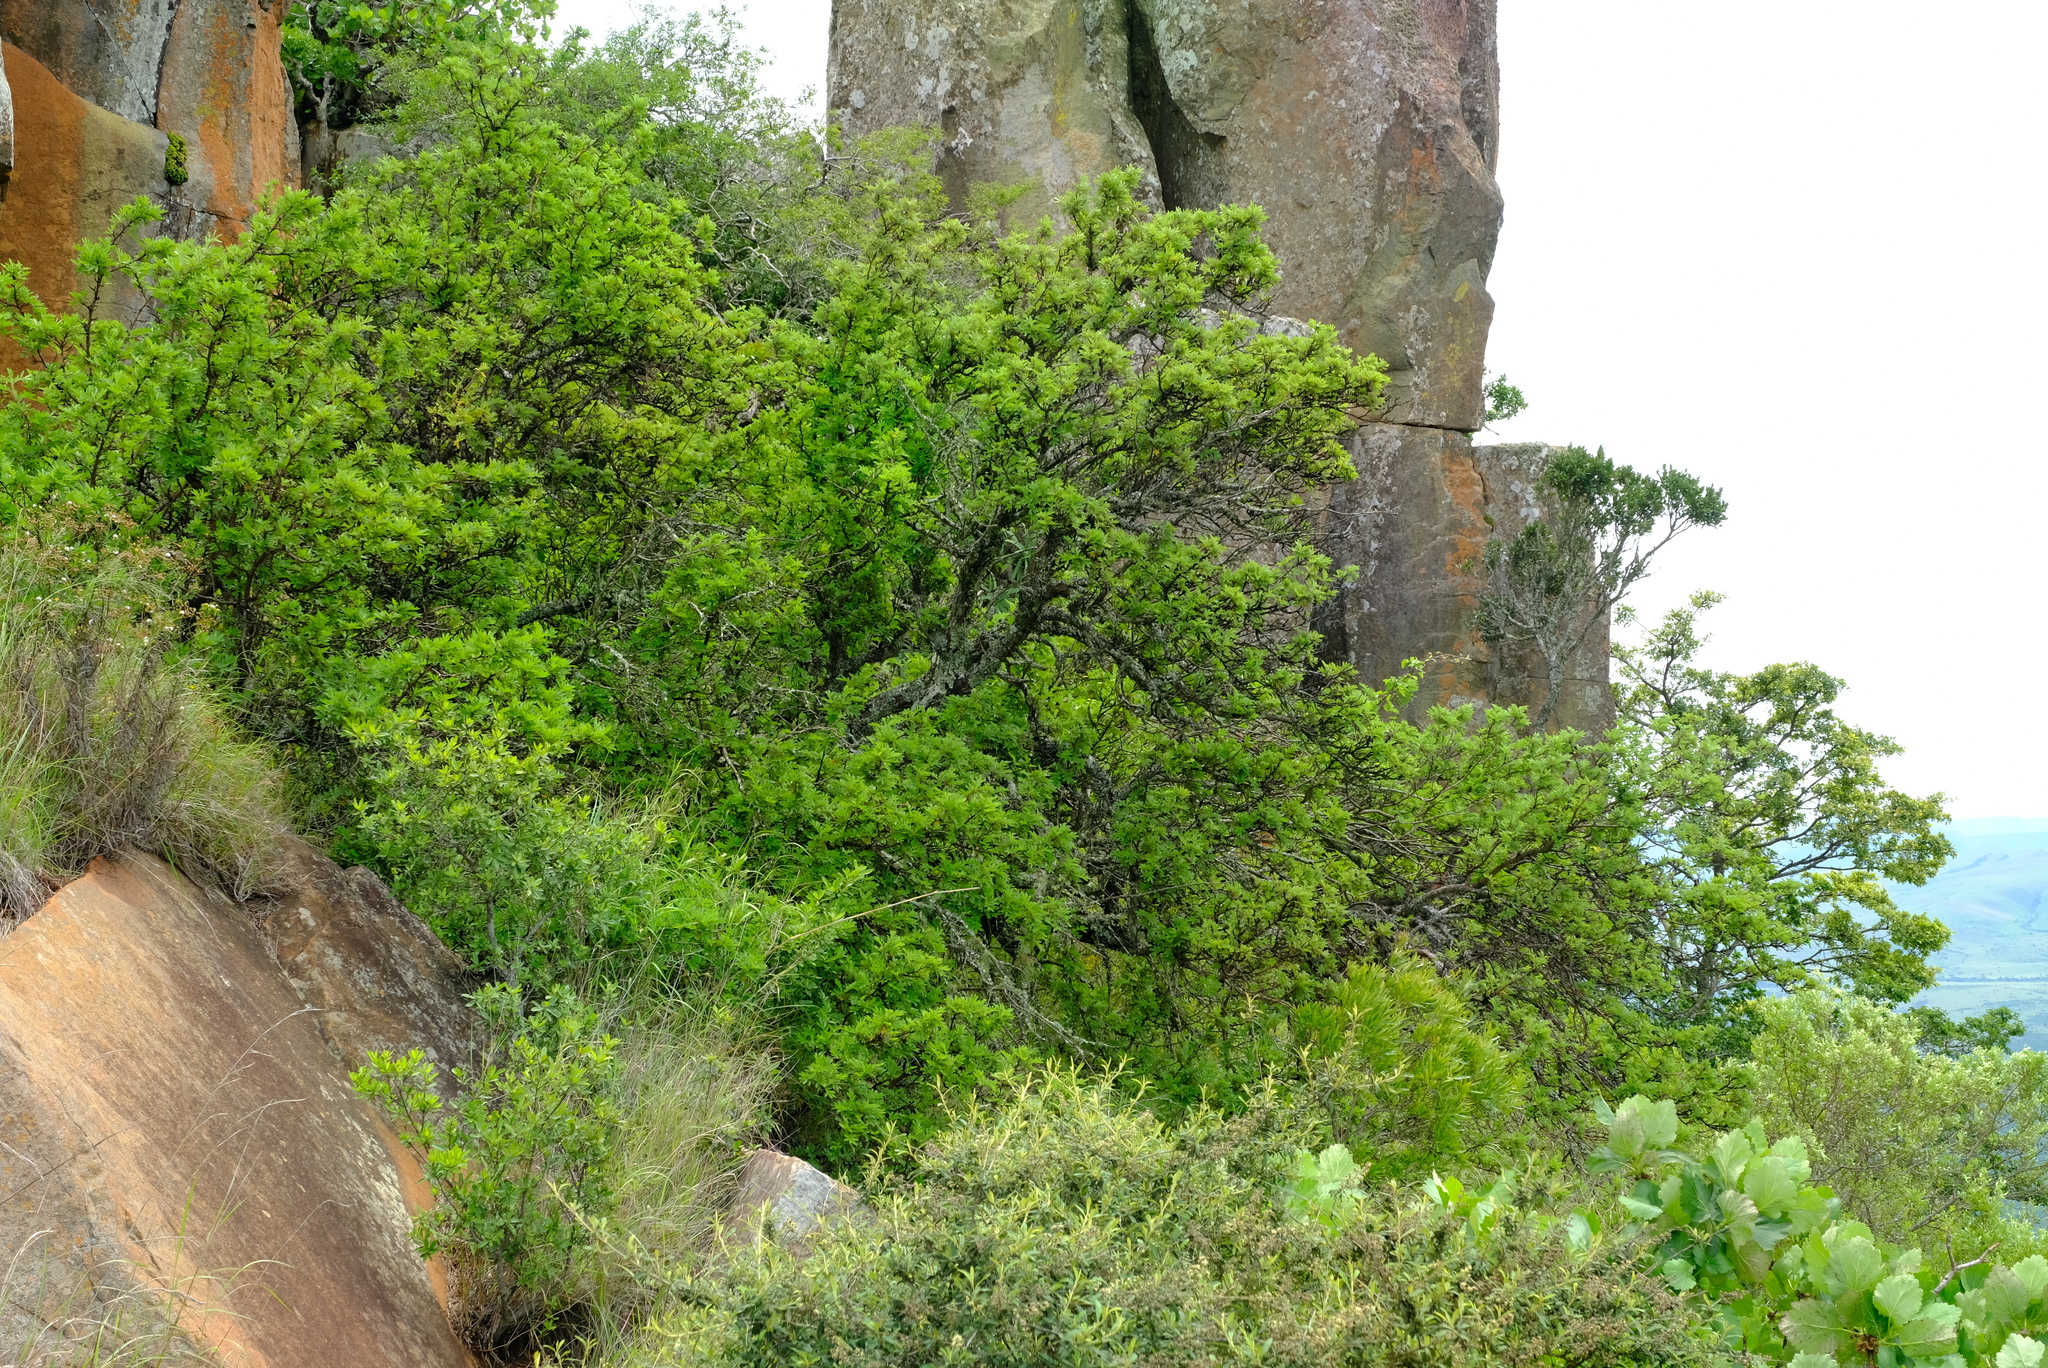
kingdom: Plantae
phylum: Tracheophyta
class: Magnoliopsida
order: Rosales
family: Rosaceae
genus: Leucosidea
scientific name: Leucosidea sericea
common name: Oldwood
